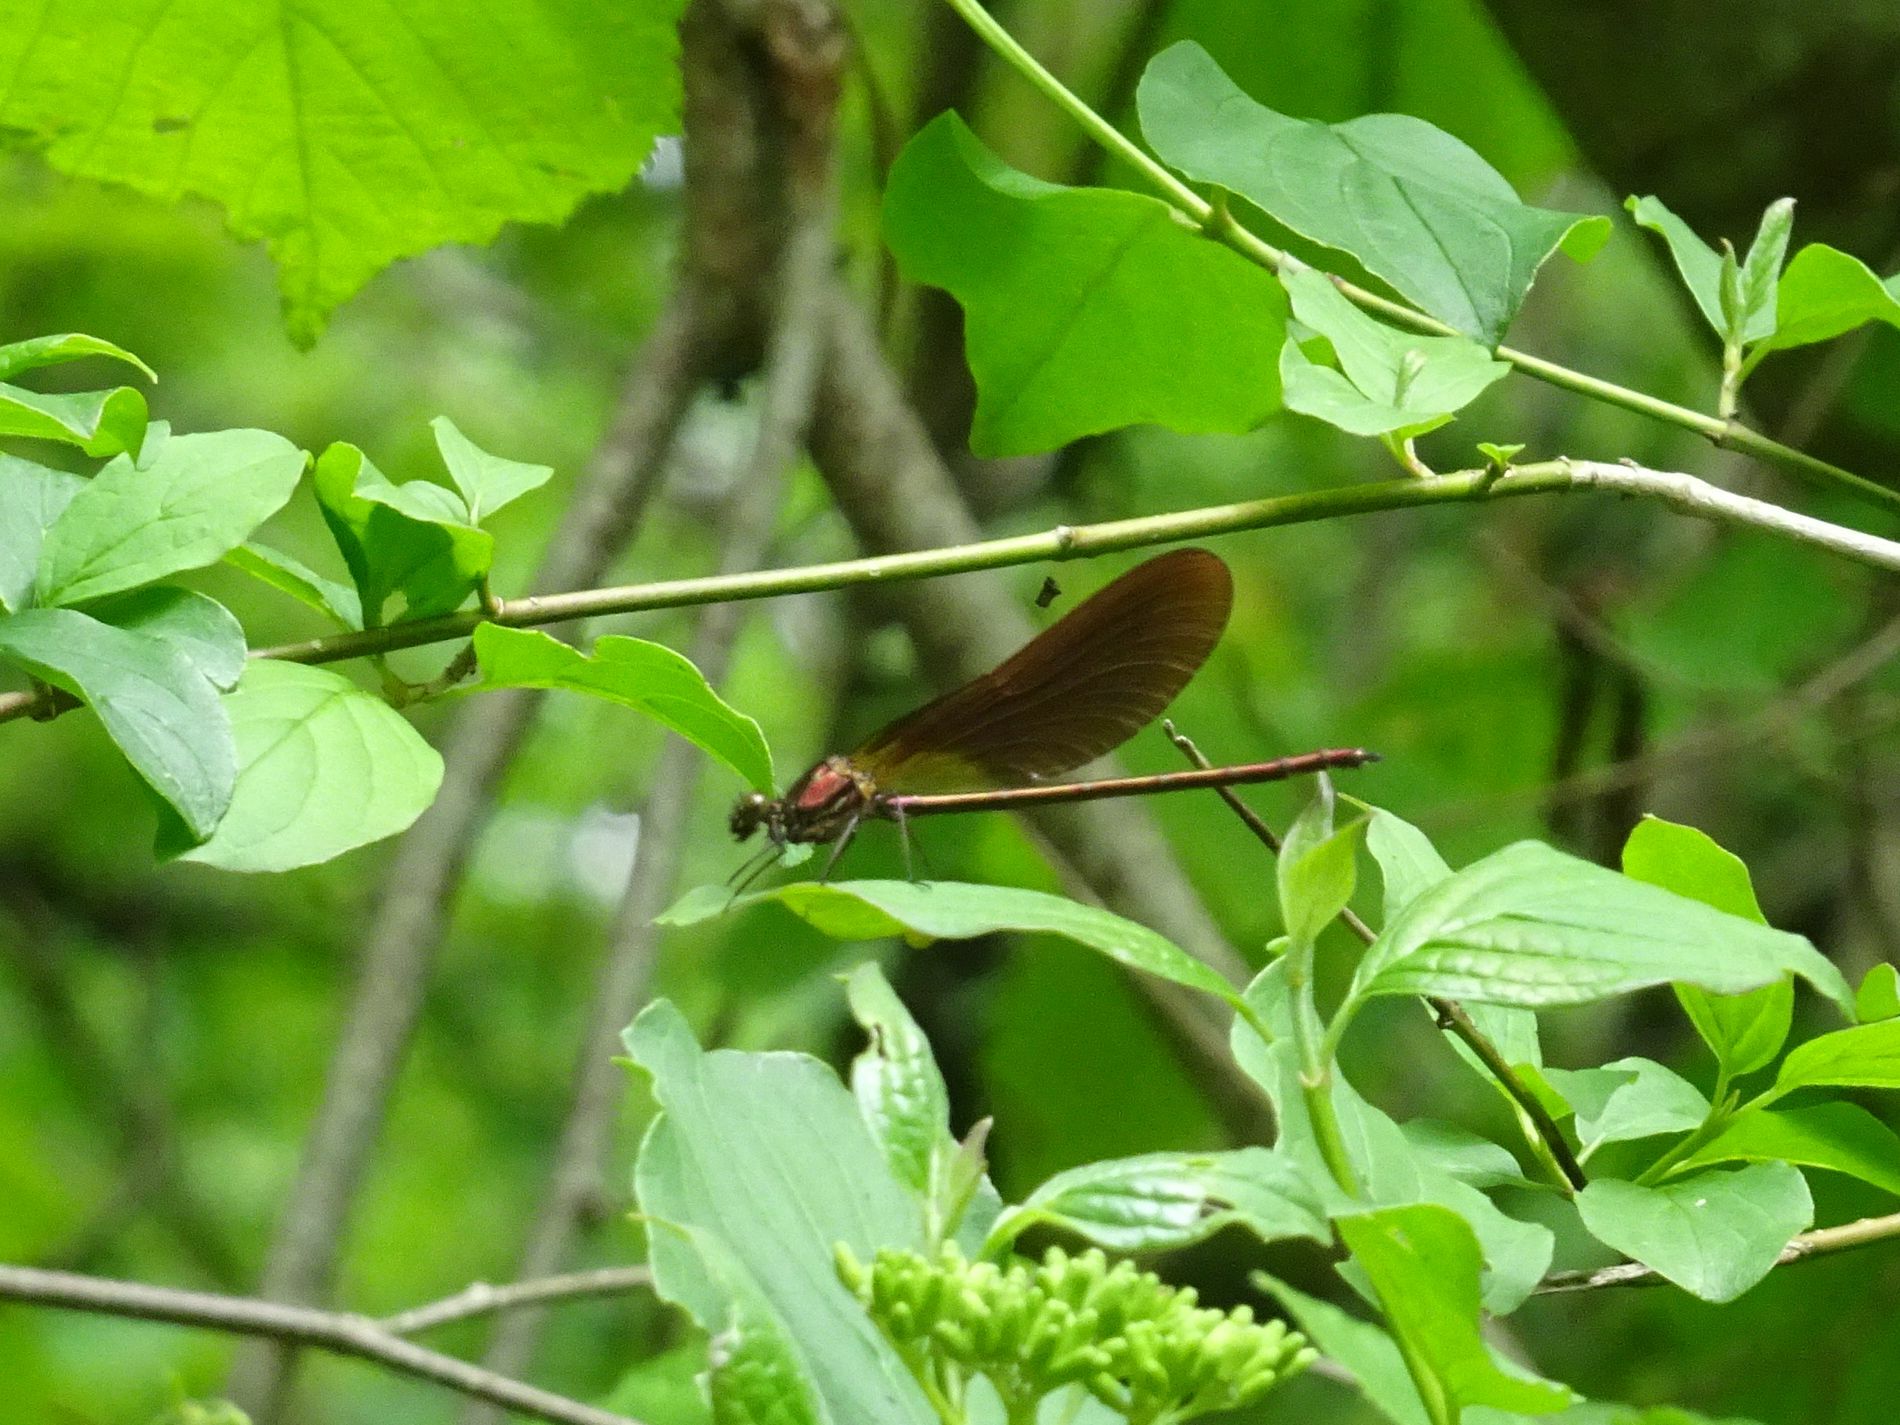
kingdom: Animalia
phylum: Arthropoda
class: Insecta
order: Odonata
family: Calopterygidae
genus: Calopteryx
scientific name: Calopteryx haemorrhoidalis
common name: Copper demoiselle
